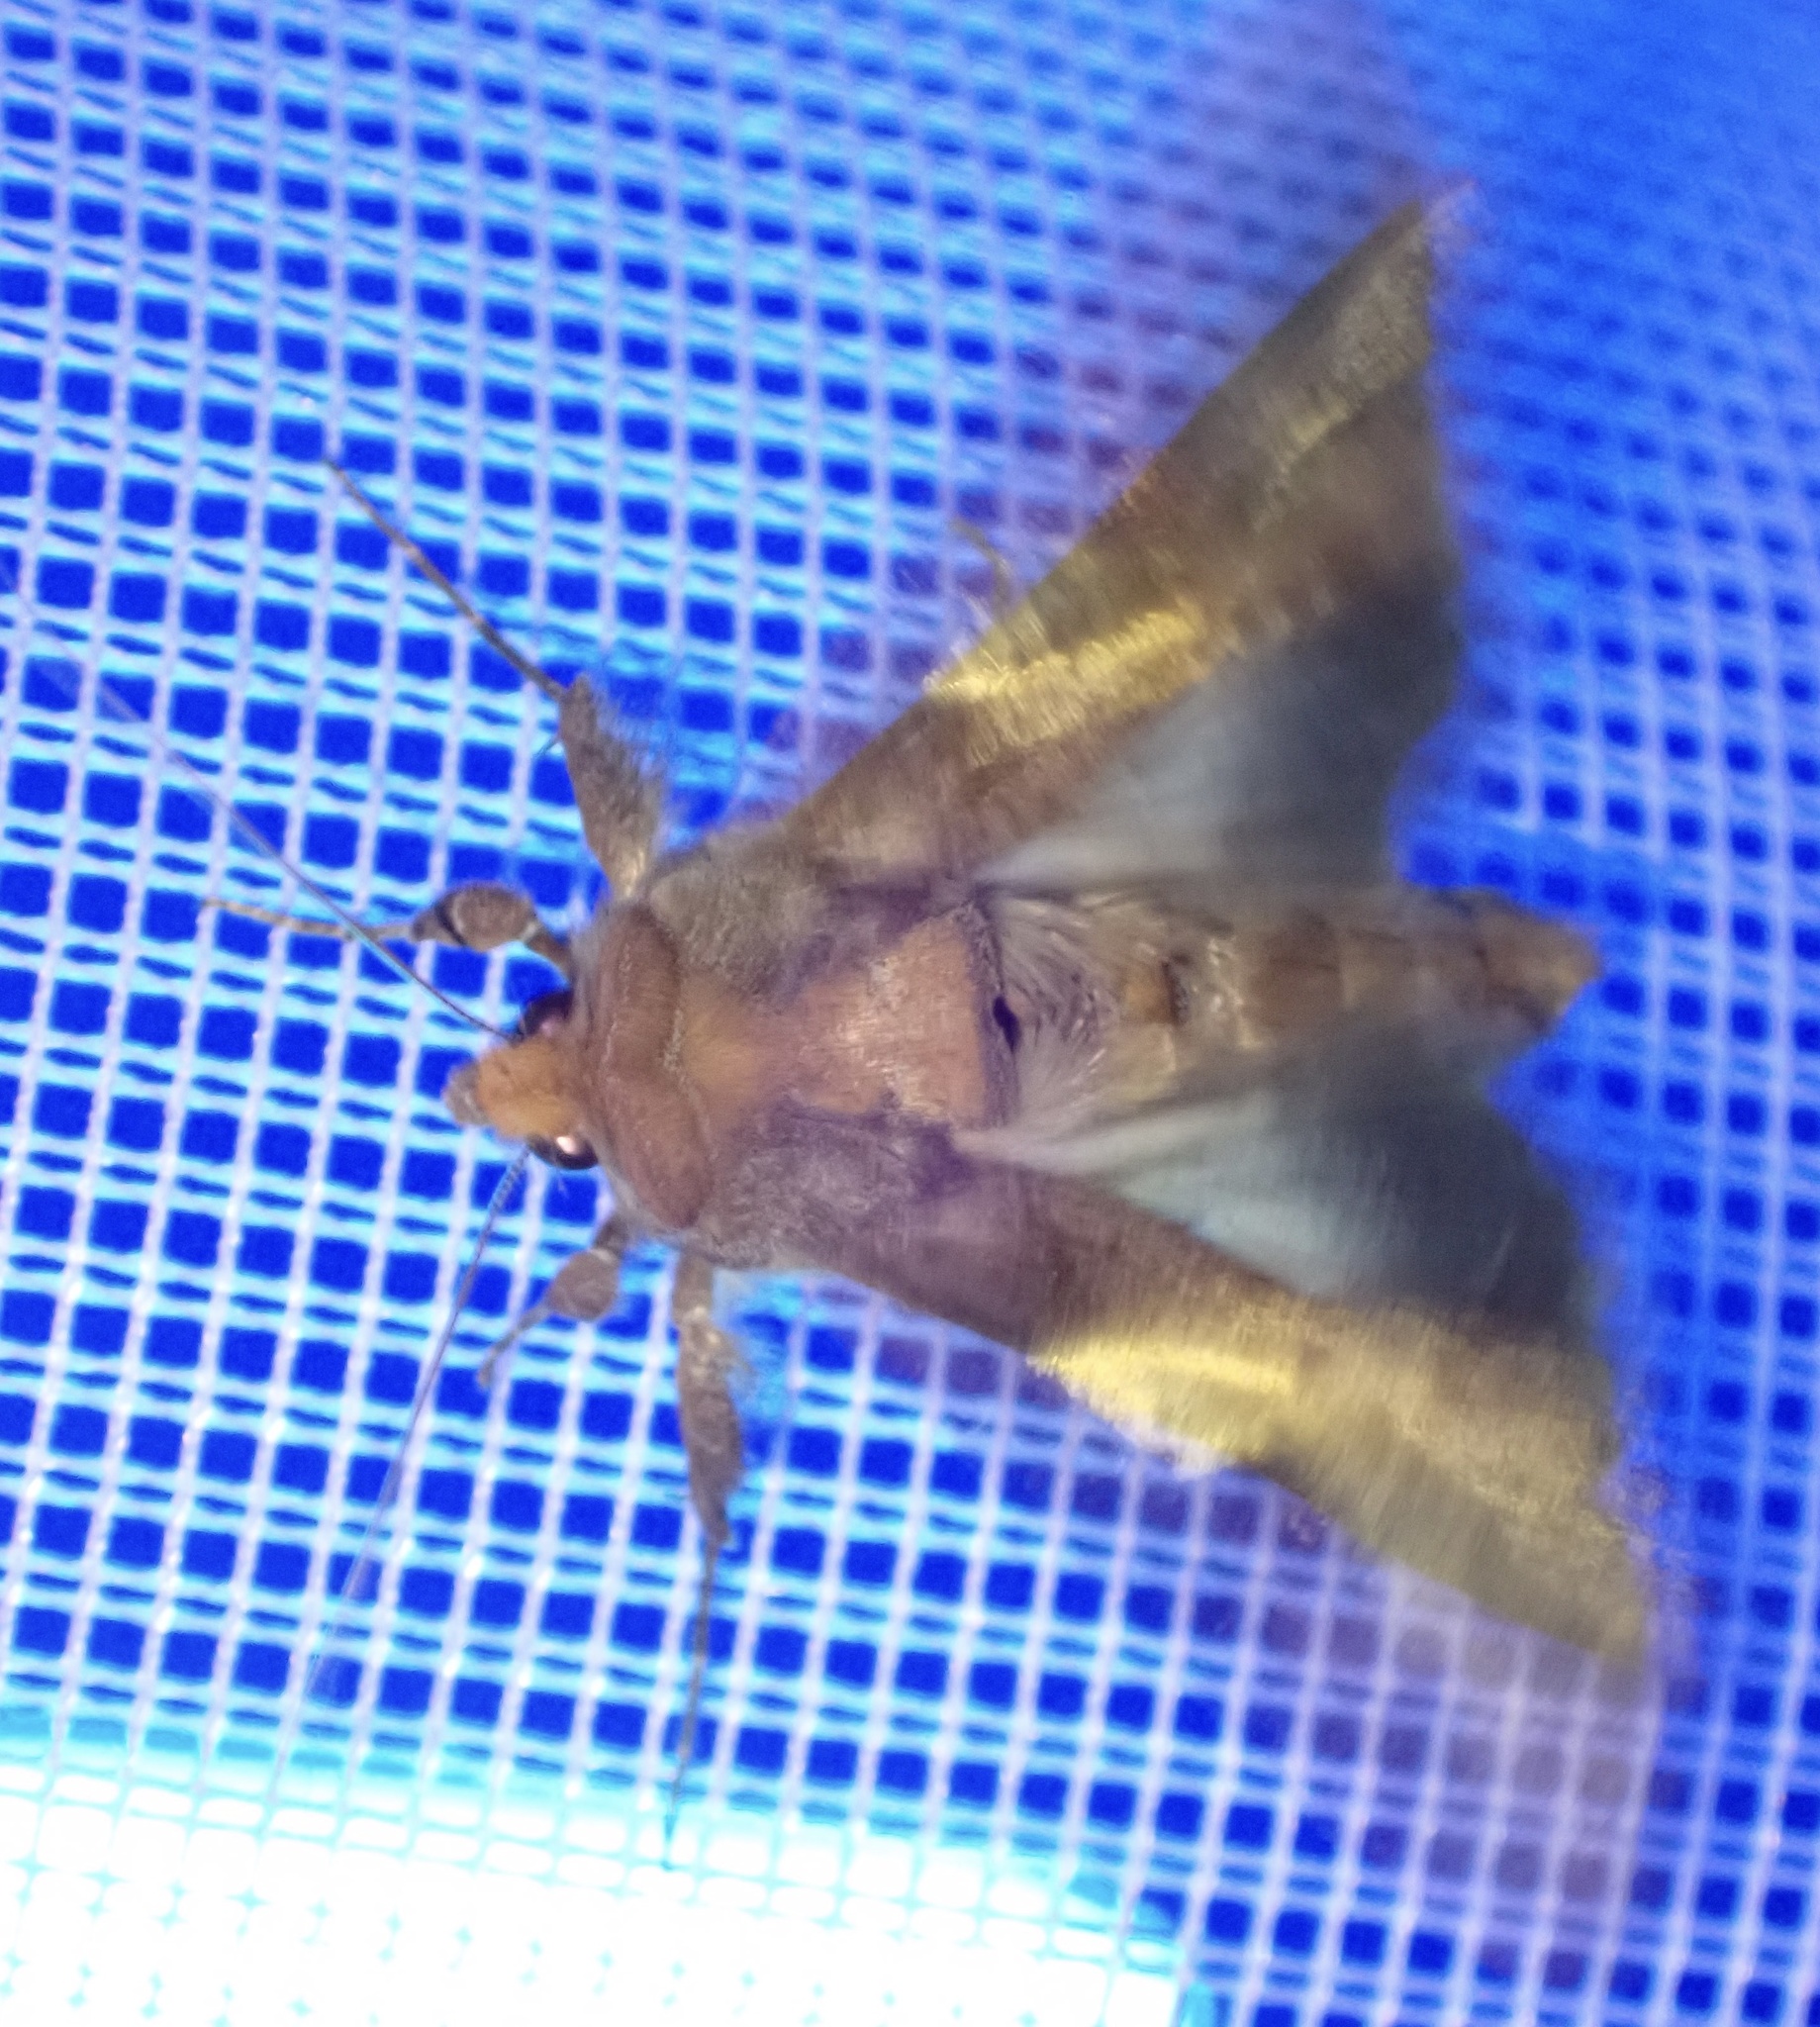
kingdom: Animalia
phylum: Arthropoda
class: Insecta
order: Lepidoptera
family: Noctuidae
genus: Thysanoplusia
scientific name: Thysanoplusia orichalcea
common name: Slender burnished brass, golden plusia
